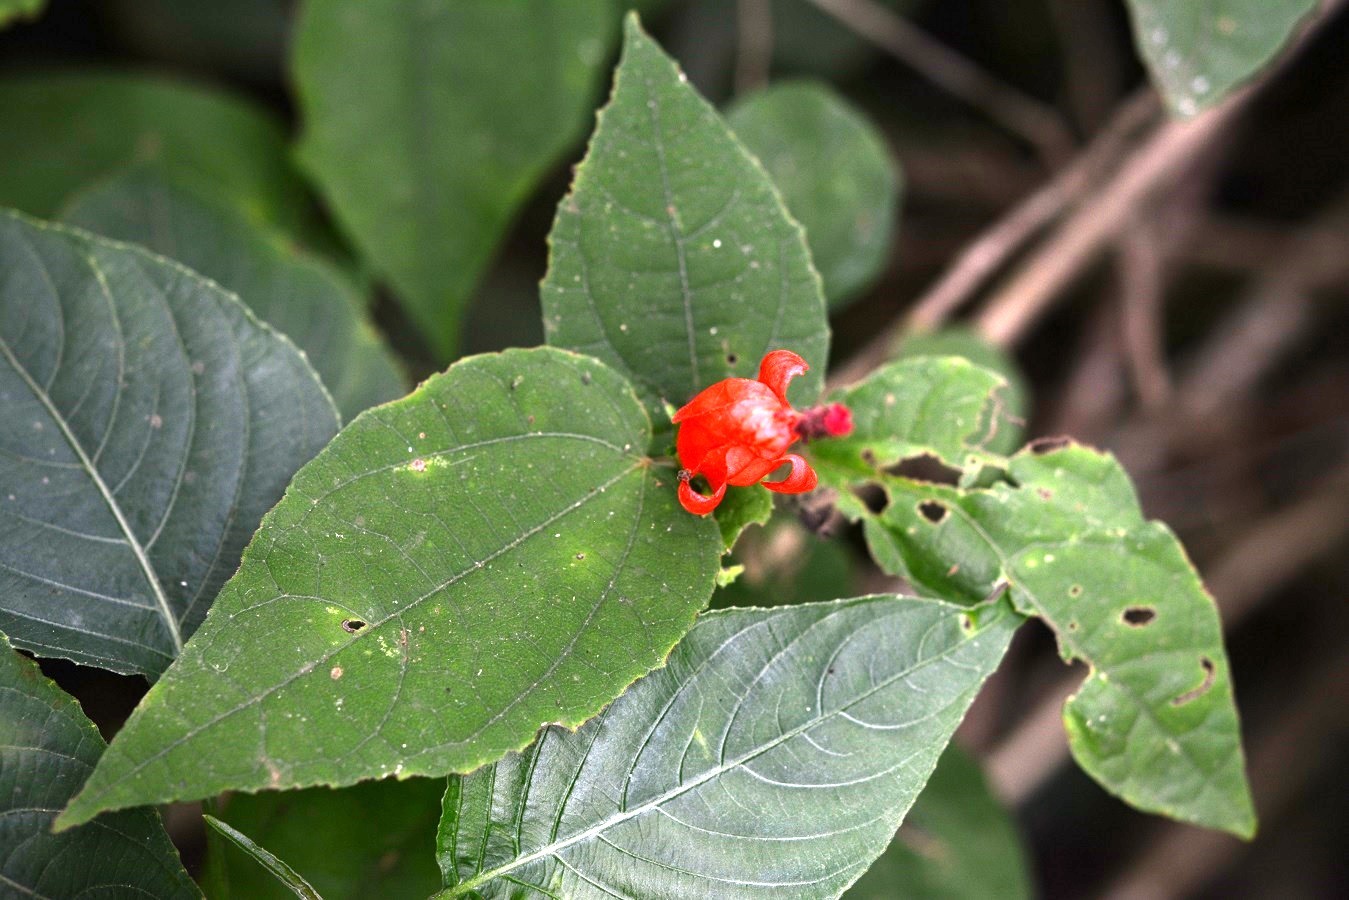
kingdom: Plantae
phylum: Tracheophyta
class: Magnoliopsida
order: Malvales
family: Malvaceae
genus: Malvaviscus
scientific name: Malvaviscus arboreus
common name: Wax mallow
